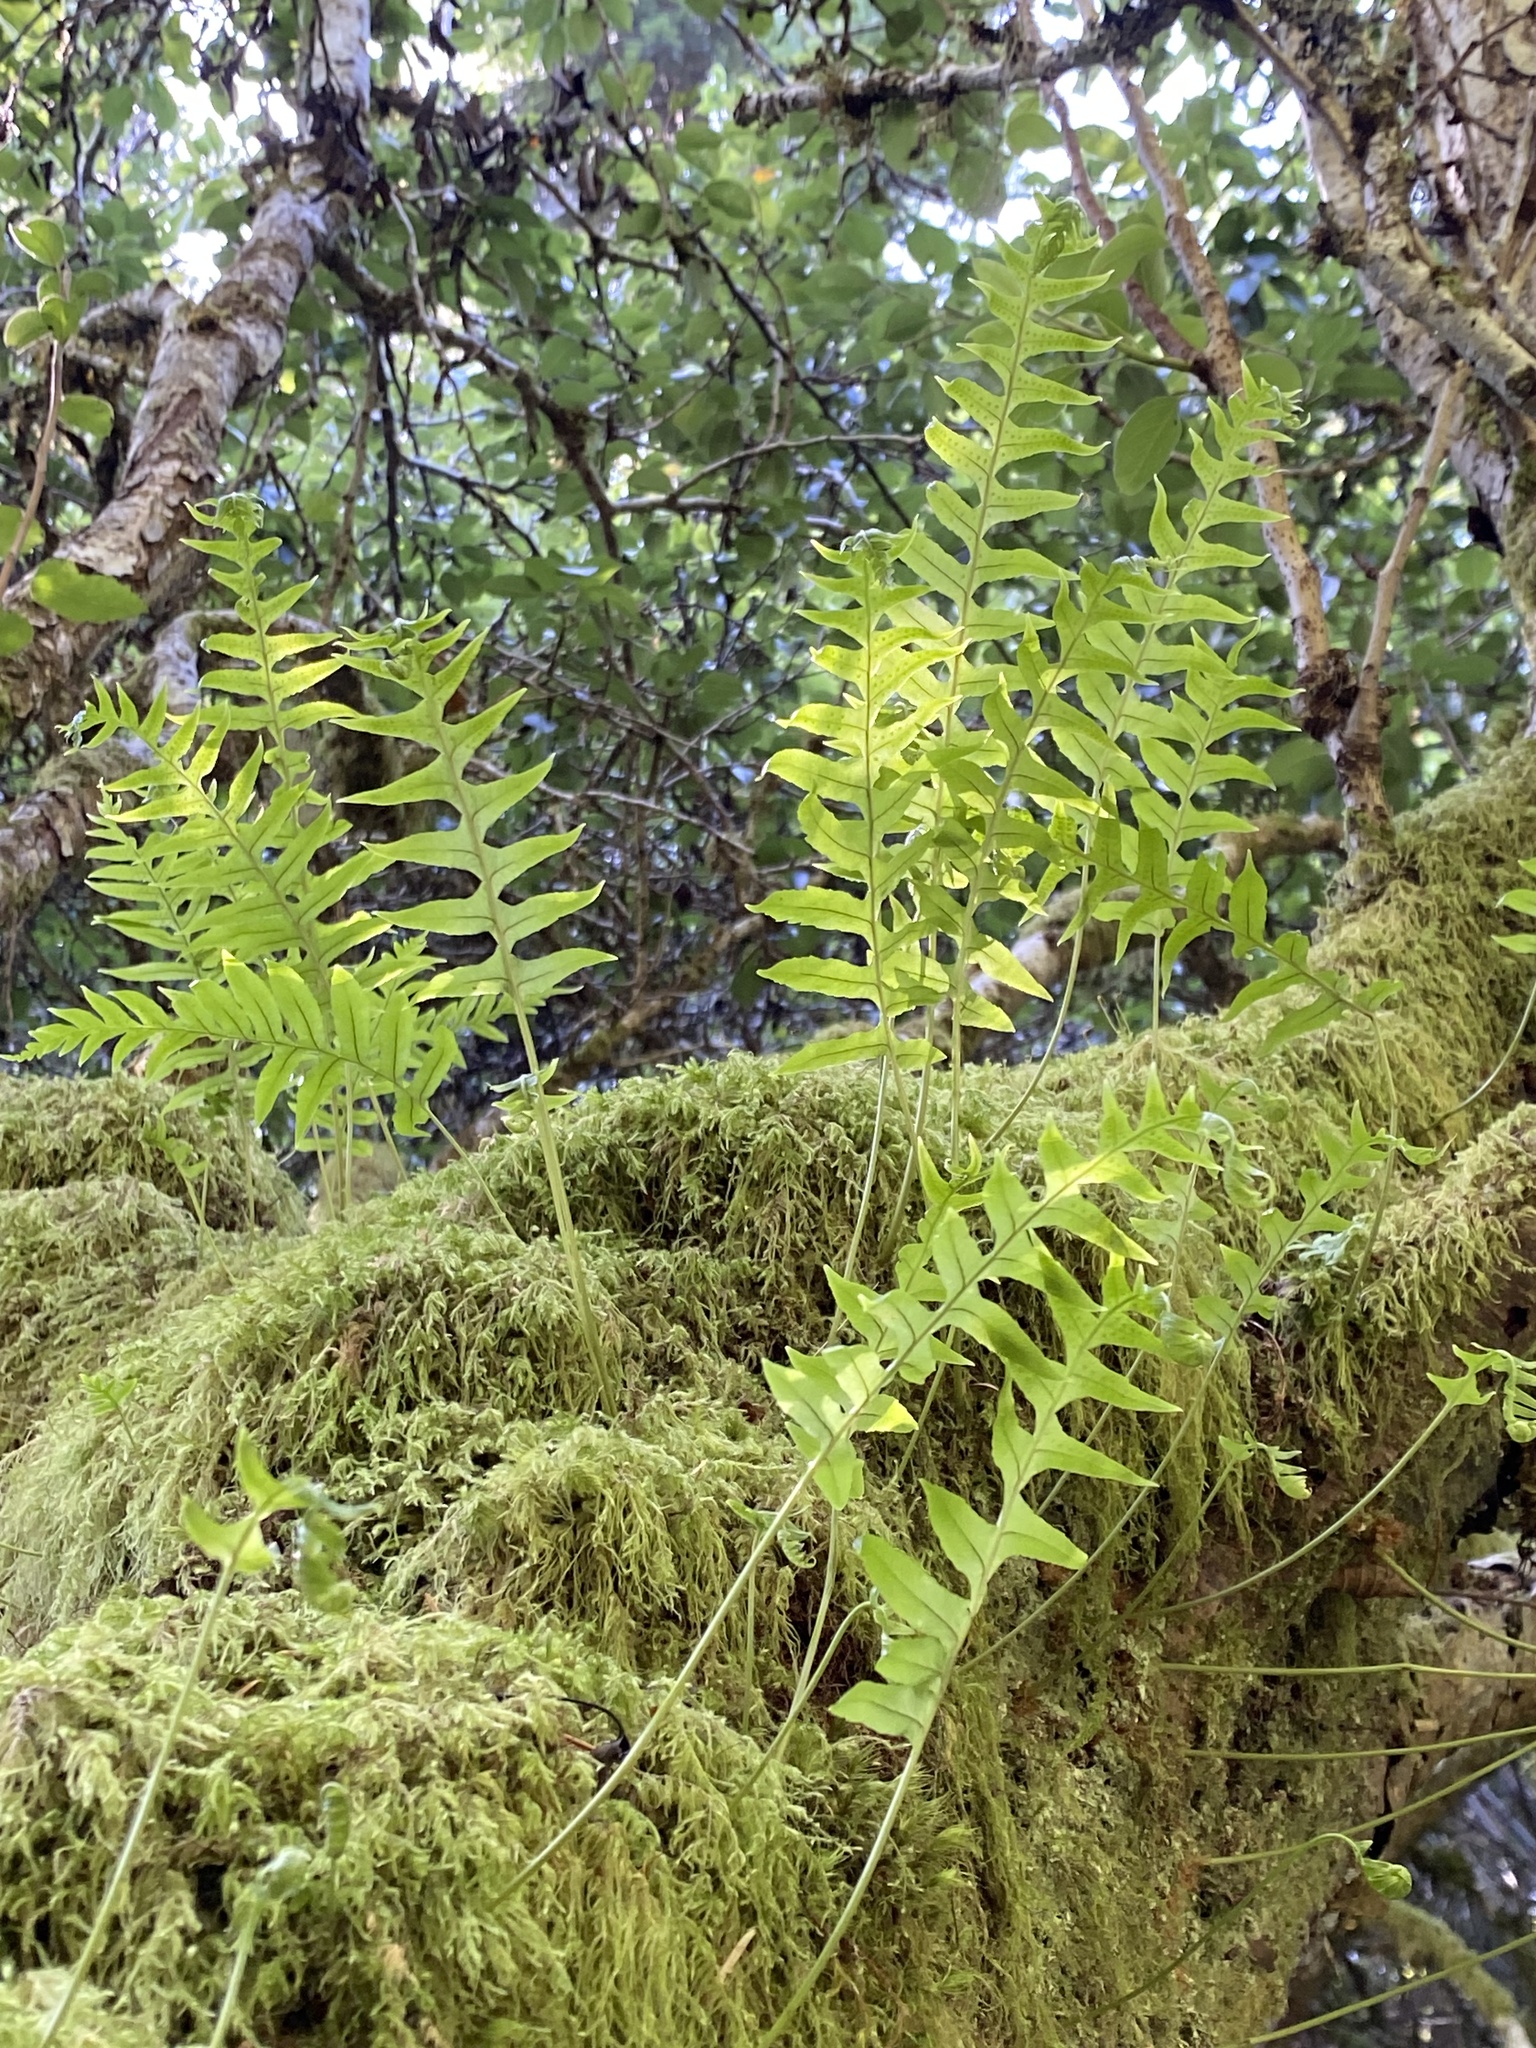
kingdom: Plantae
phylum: Tracheophyta
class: Polypodiopsida
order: Polypodiales
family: Polypodiaceae
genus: Polypodium
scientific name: Polypodium glycyrrhiza
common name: Licorice fern
